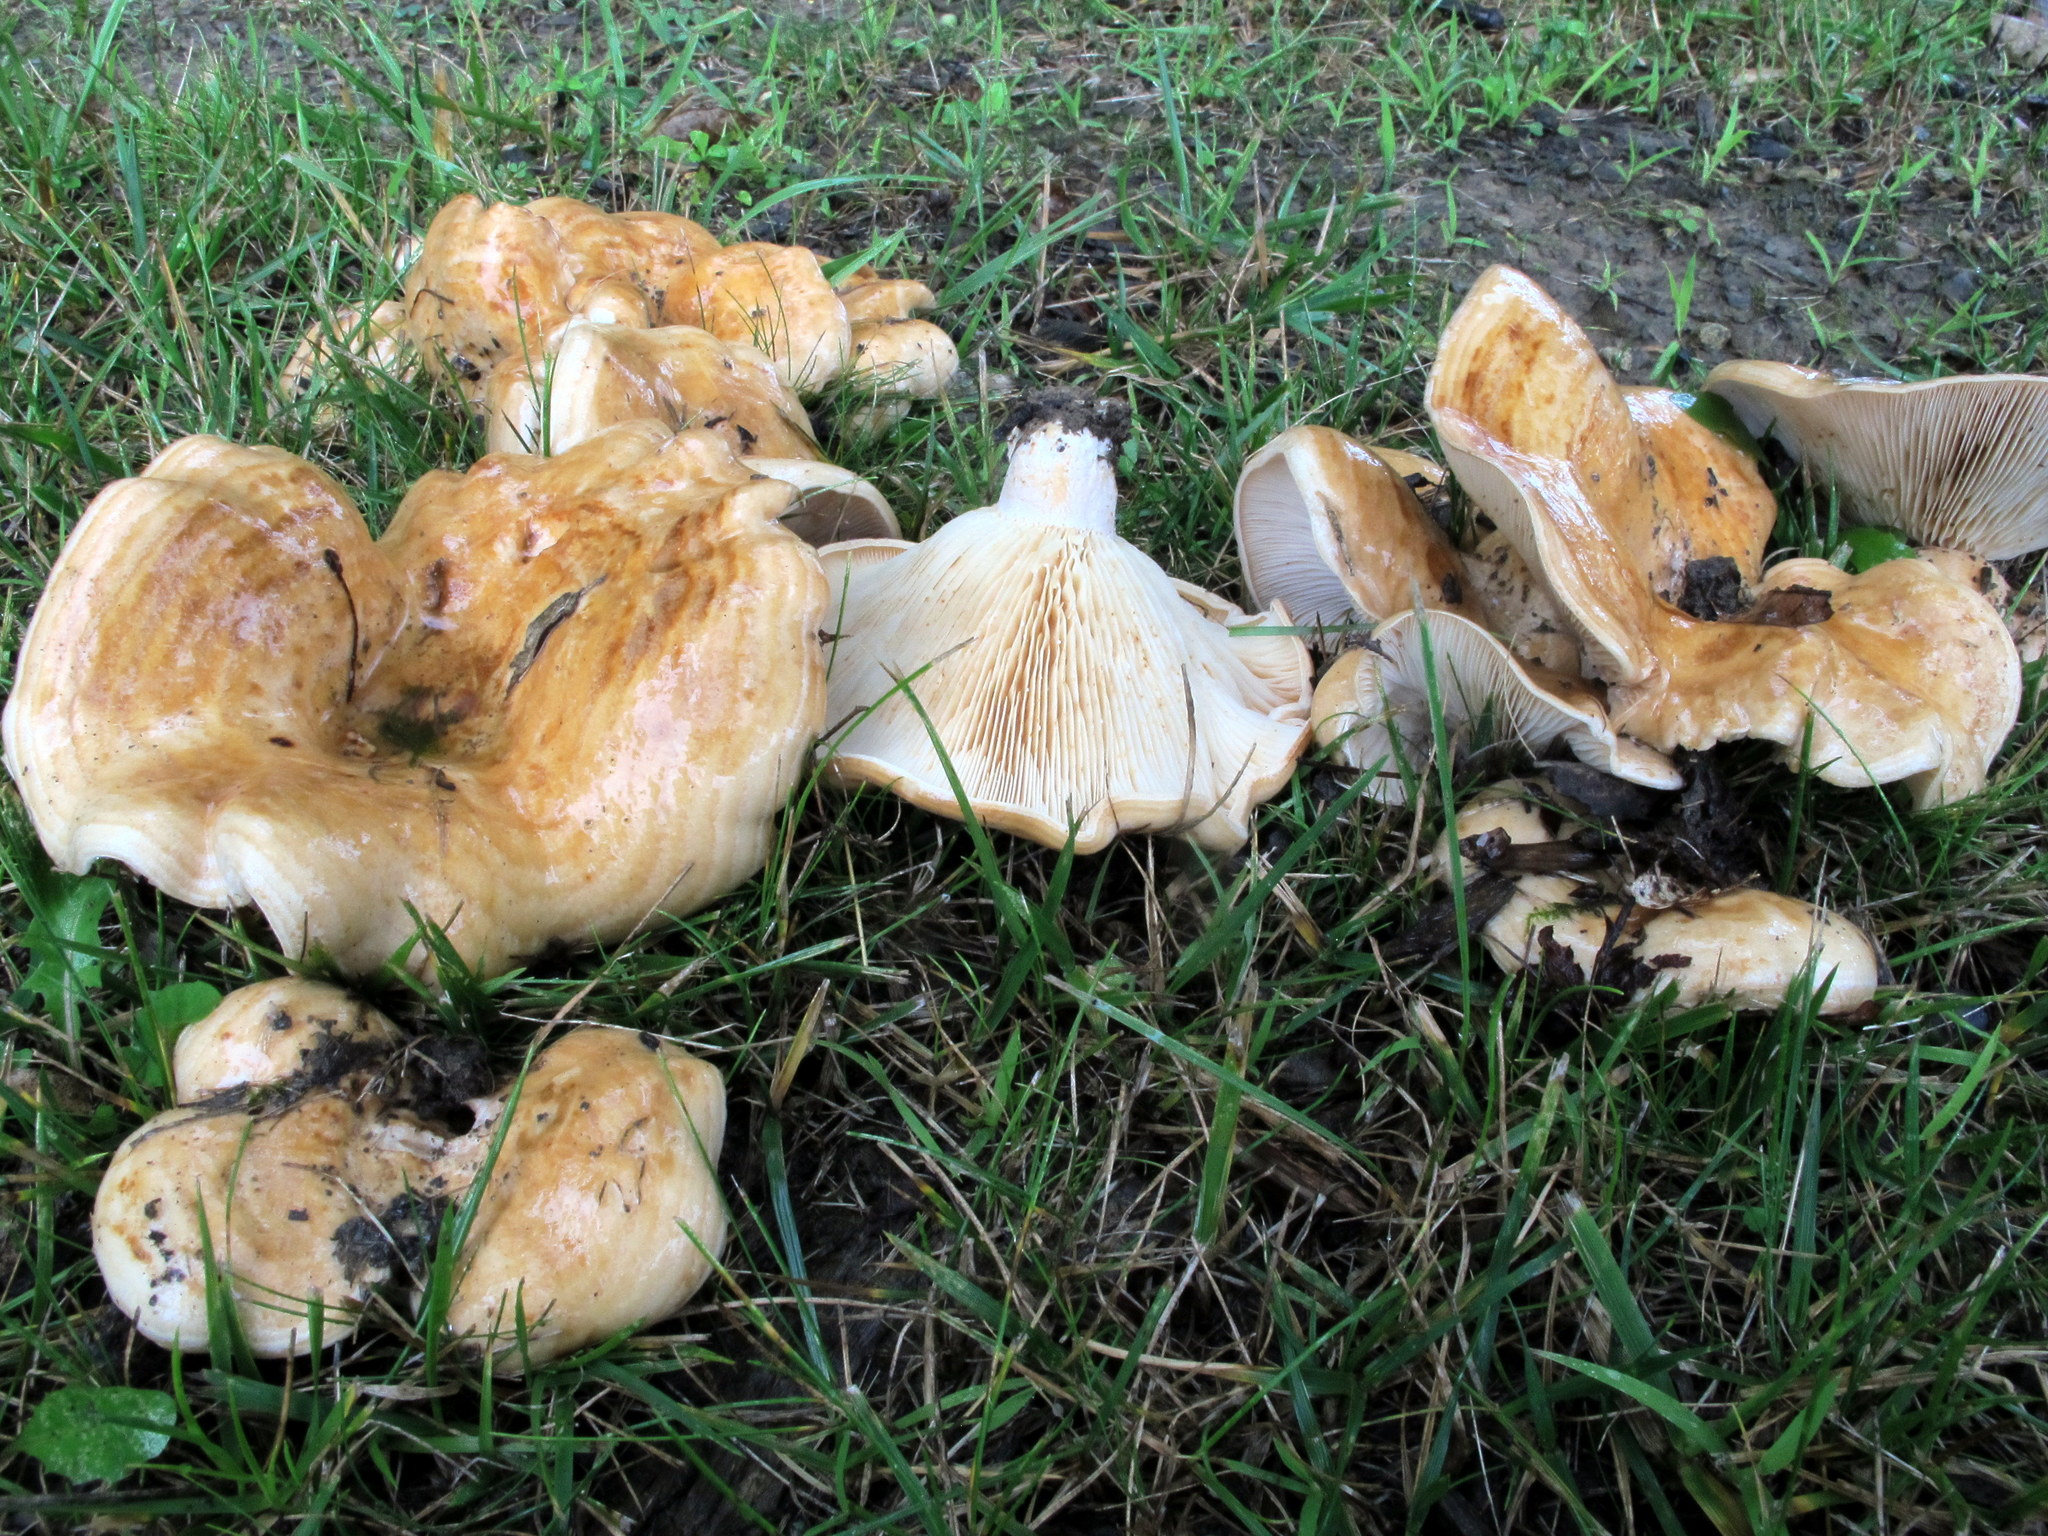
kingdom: Fungi
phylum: Basidiomycota
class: Agaricomycetes
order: Russulales
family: Russulaceae
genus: Lactarius
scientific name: Lactarius psammicola
